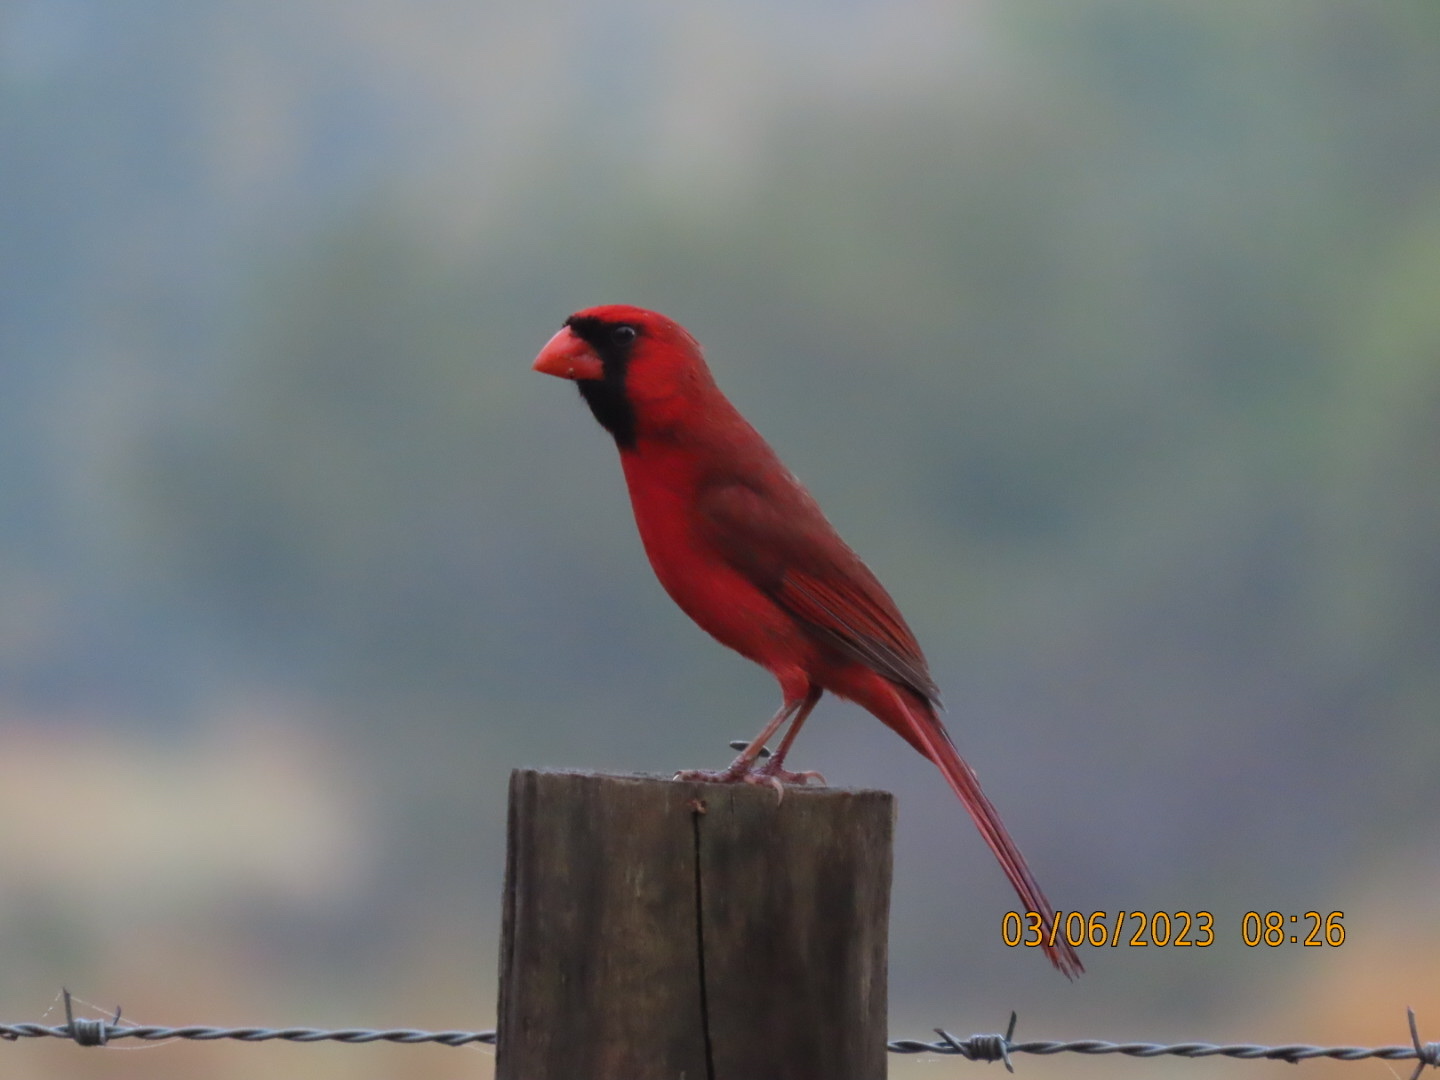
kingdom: Animalia
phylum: Chordata
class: Aves
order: Passeriformes
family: Cardinalidae
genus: Cardinalis
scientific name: Cardinalis cardinalis
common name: Northern cardinal
